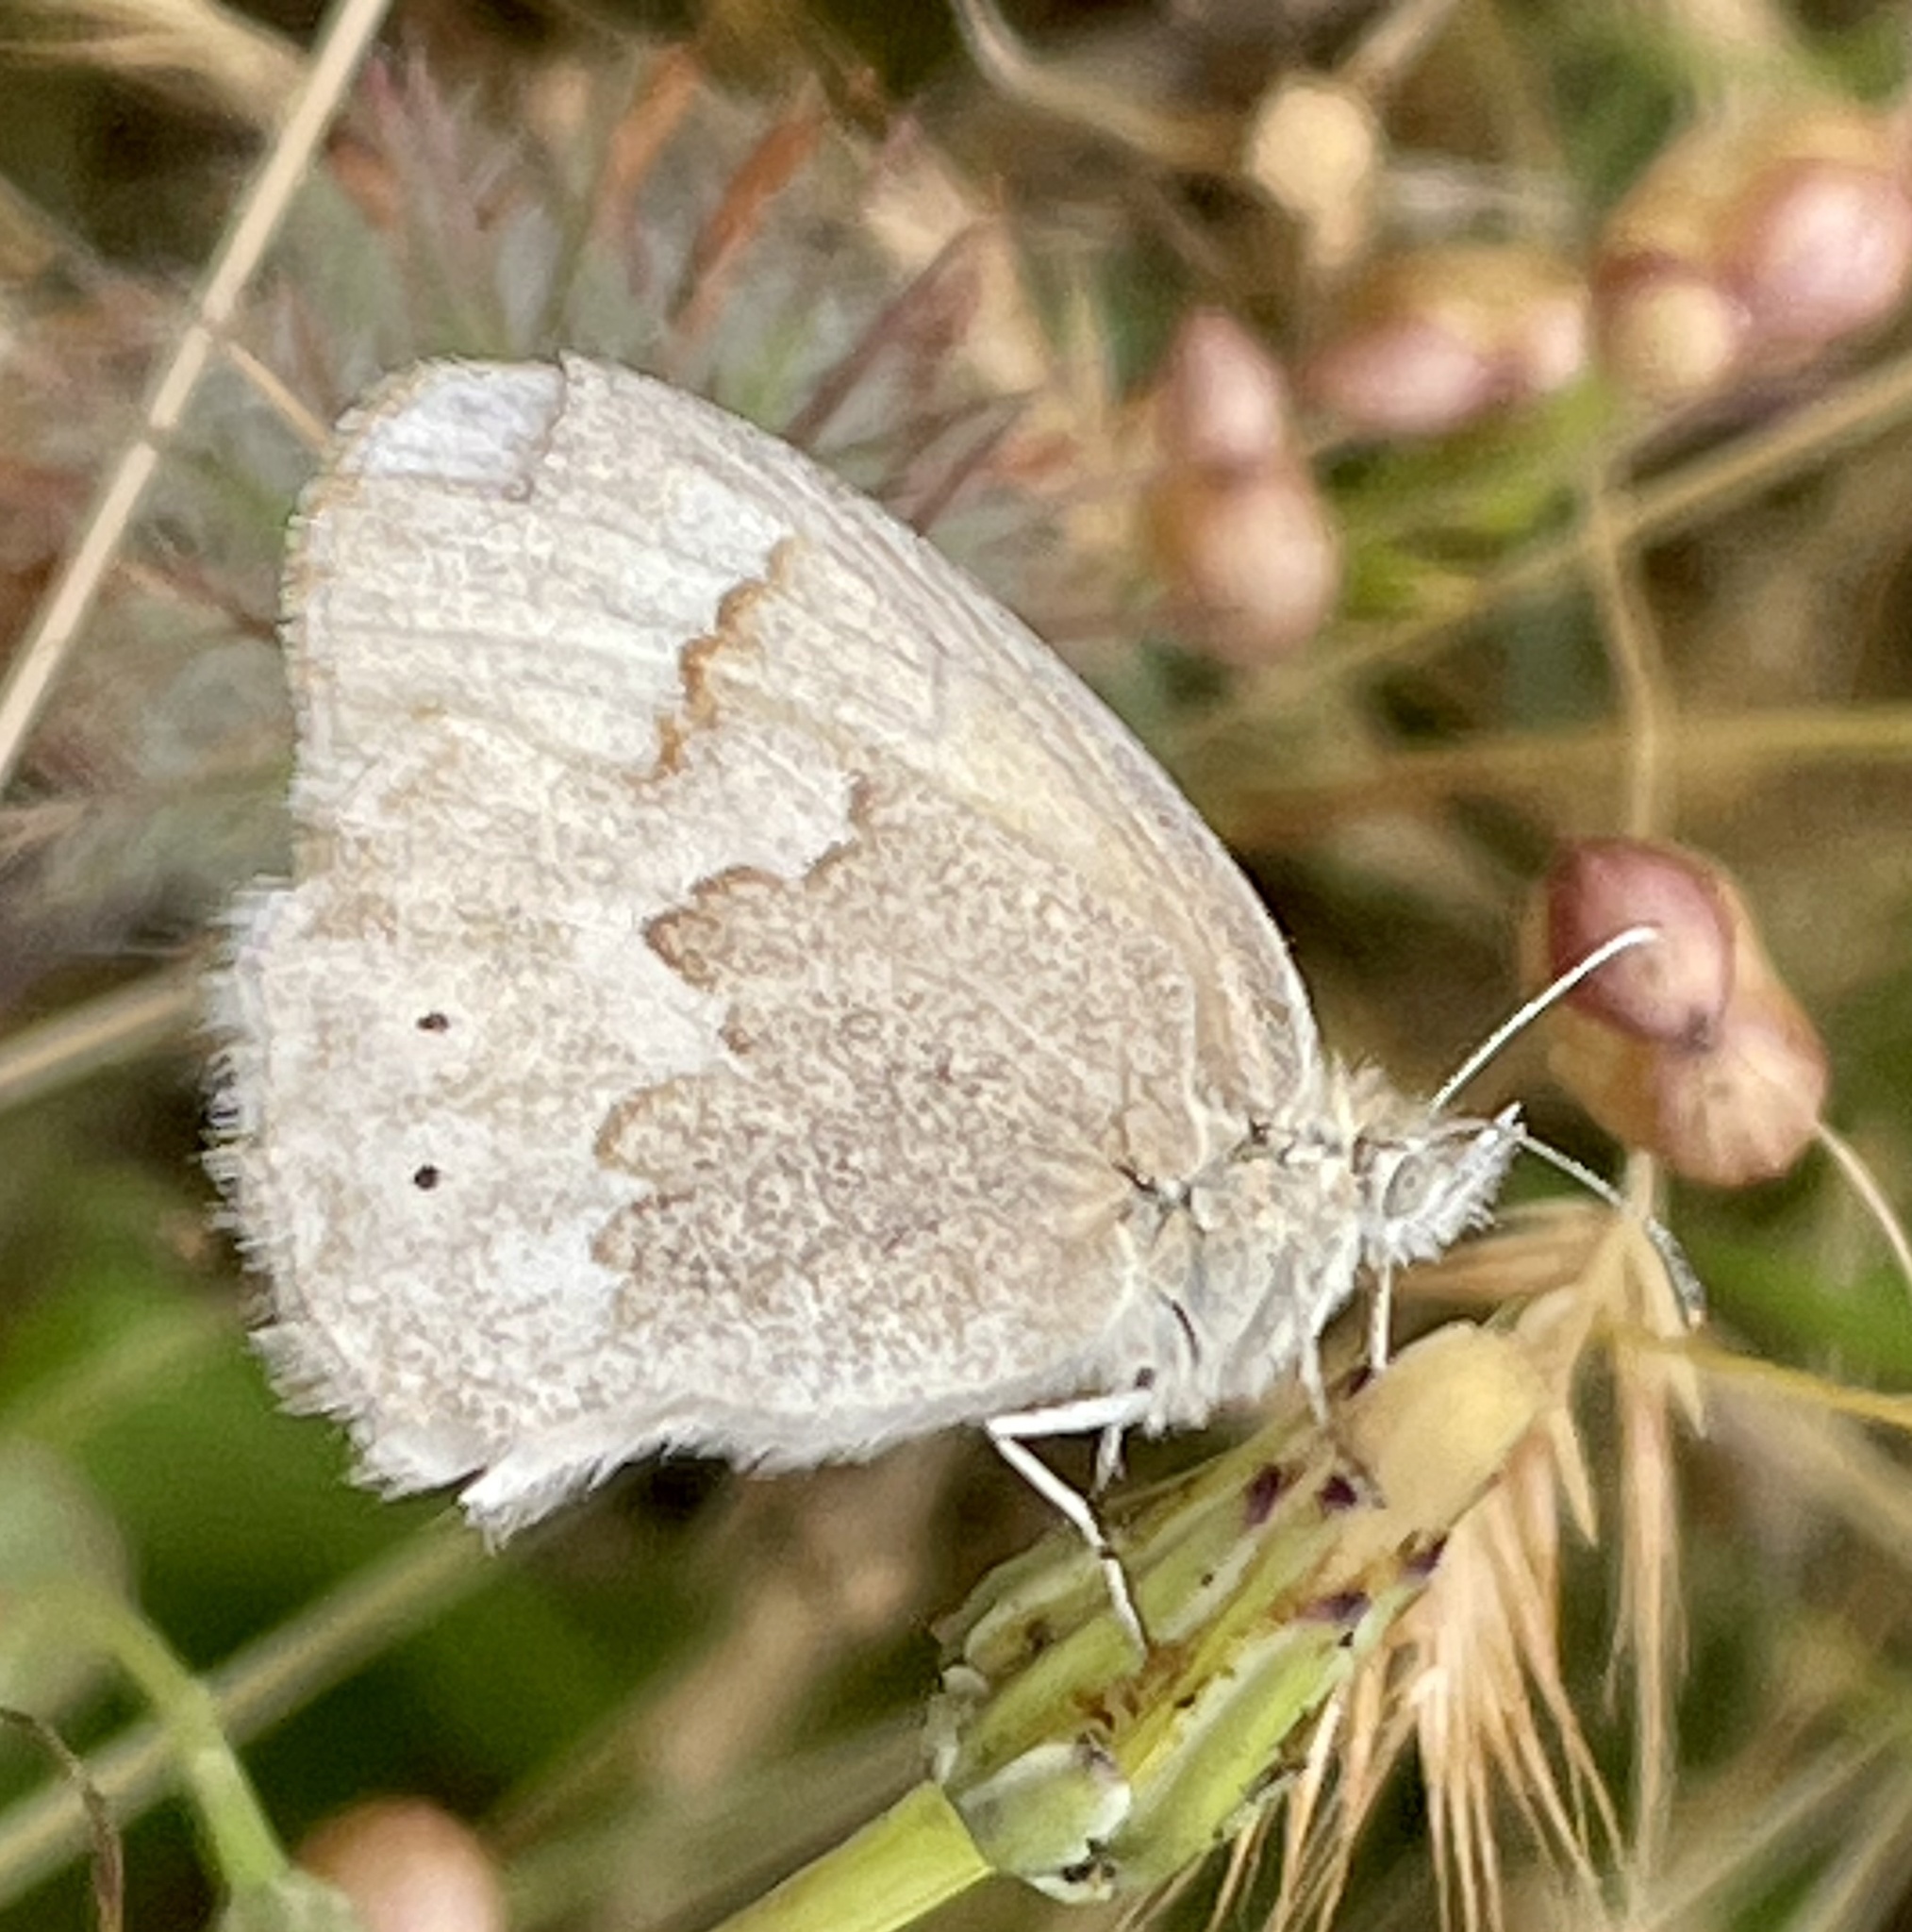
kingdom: Animalia
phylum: Arthropoda
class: Insecta
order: Lepidoptera
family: Nymphalidae
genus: Coenonympha
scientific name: Coenonympha california
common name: Common ringlet
